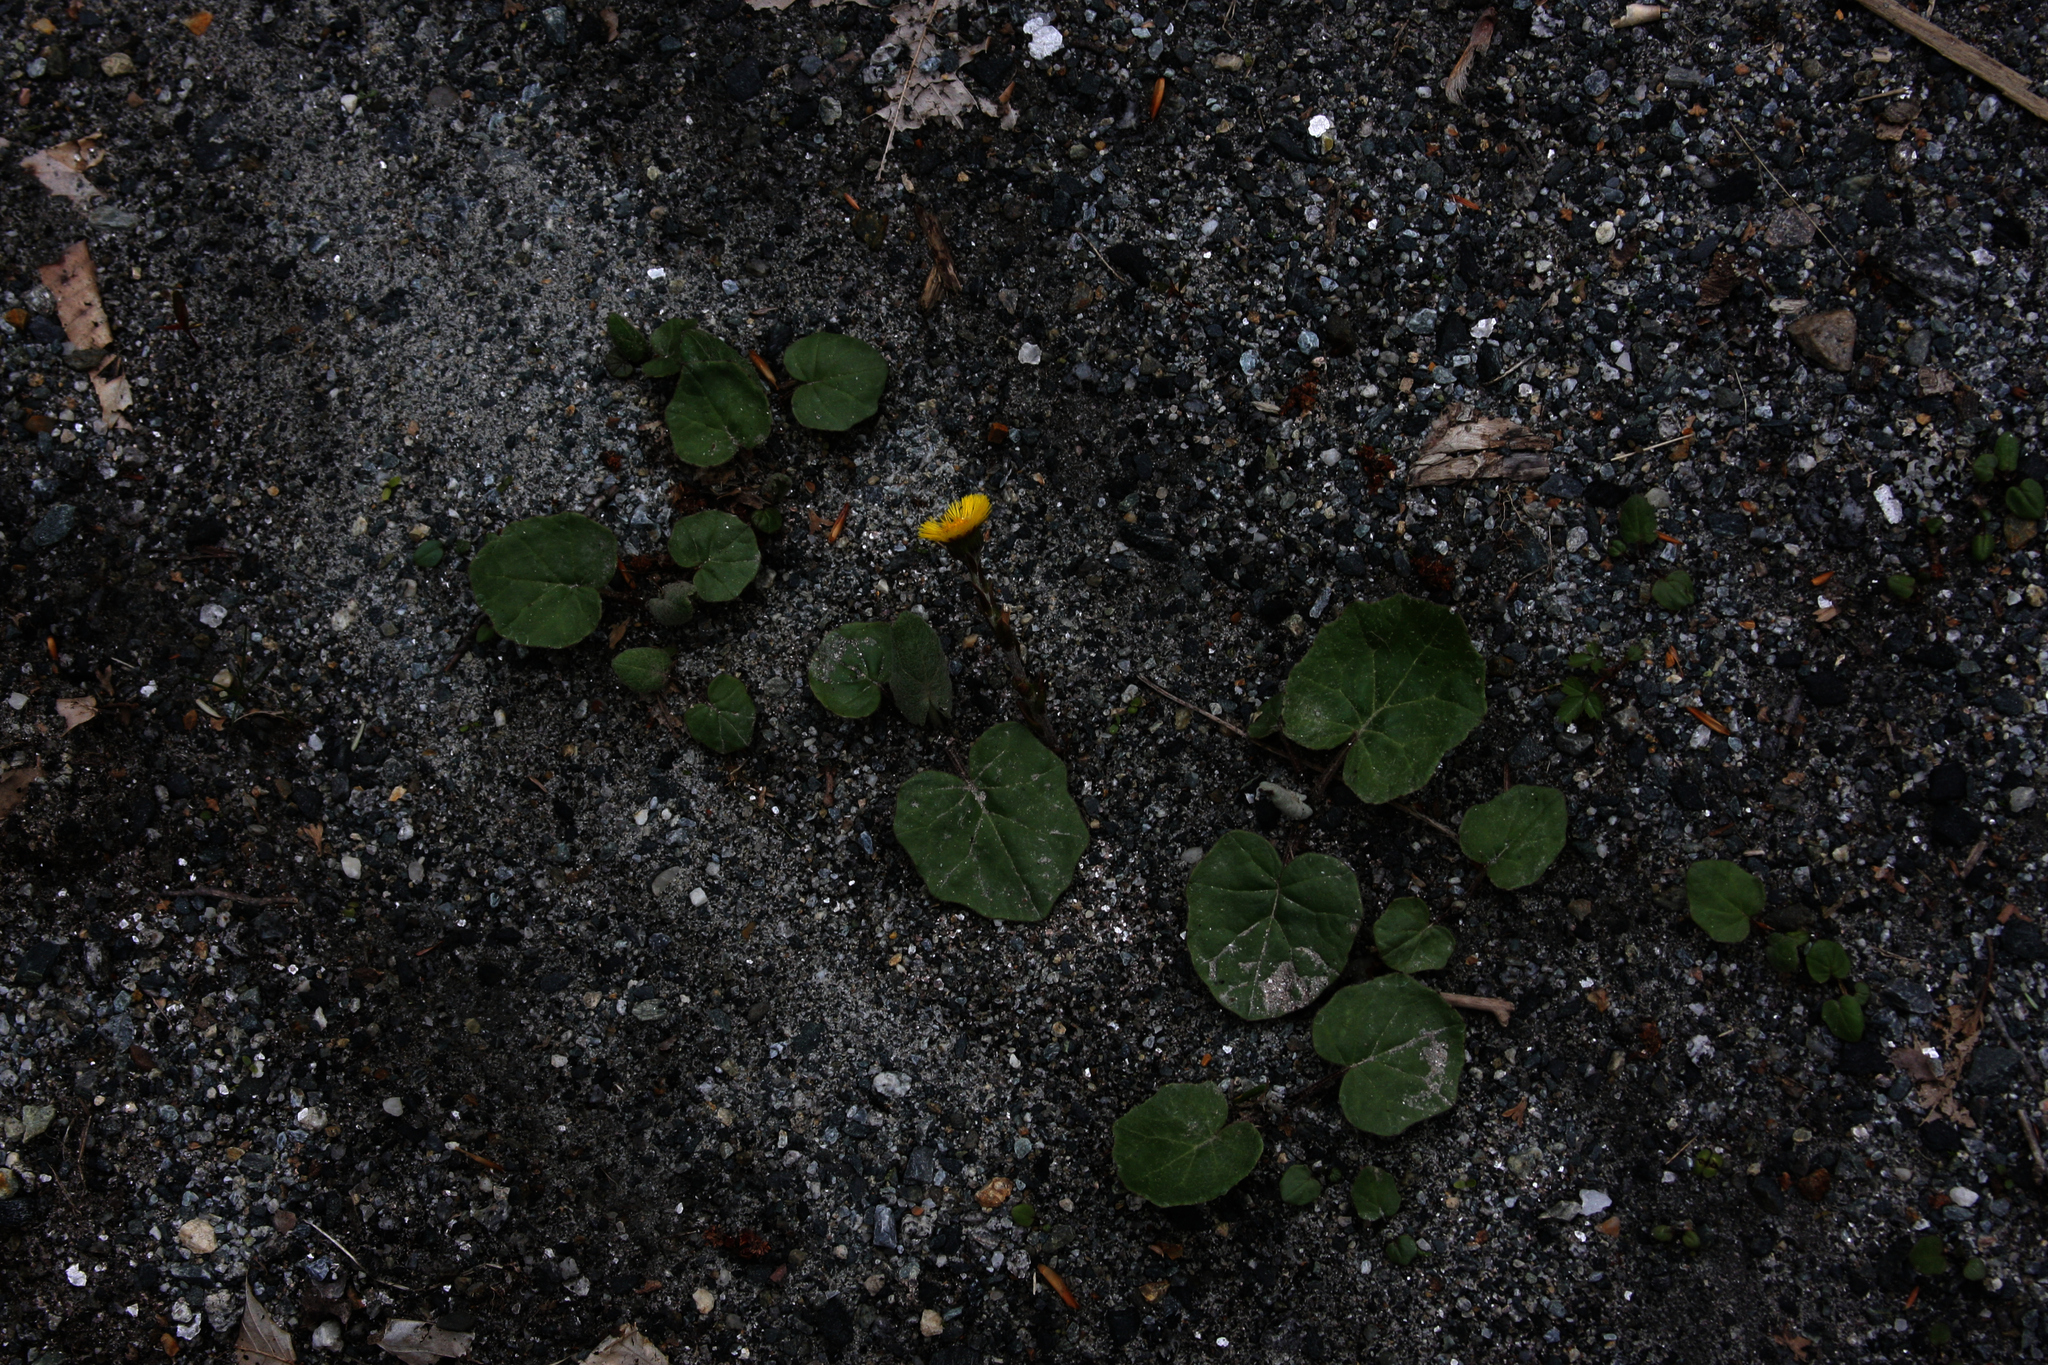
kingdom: Plantae
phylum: Tracheophyta
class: Magnoliopsida
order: Asterales
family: Asteraceae
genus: Tussilago
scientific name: Tussilago farfara
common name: Coltsfoot
